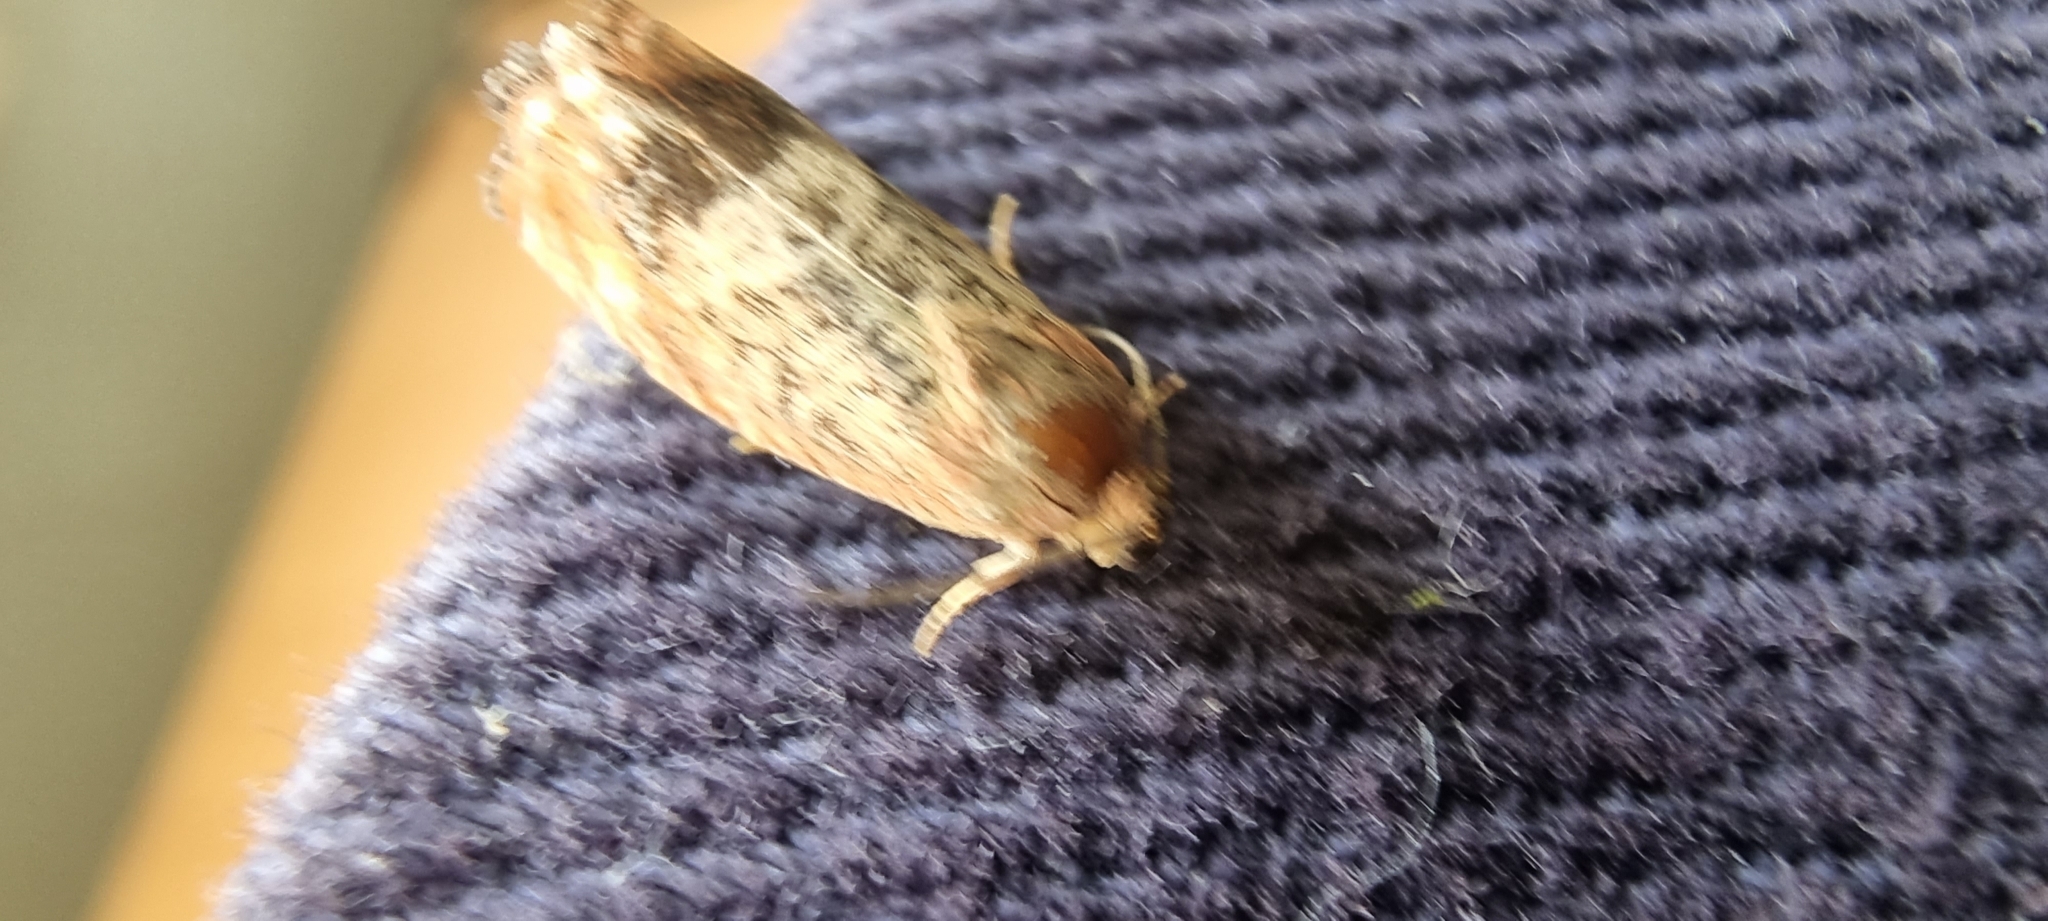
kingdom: Animalia
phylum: Arthropoda
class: Insecta
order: Lepidoptera
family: Tortricidae
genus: Cydia
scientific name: Cydia amplana
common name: Vagrant piercer
